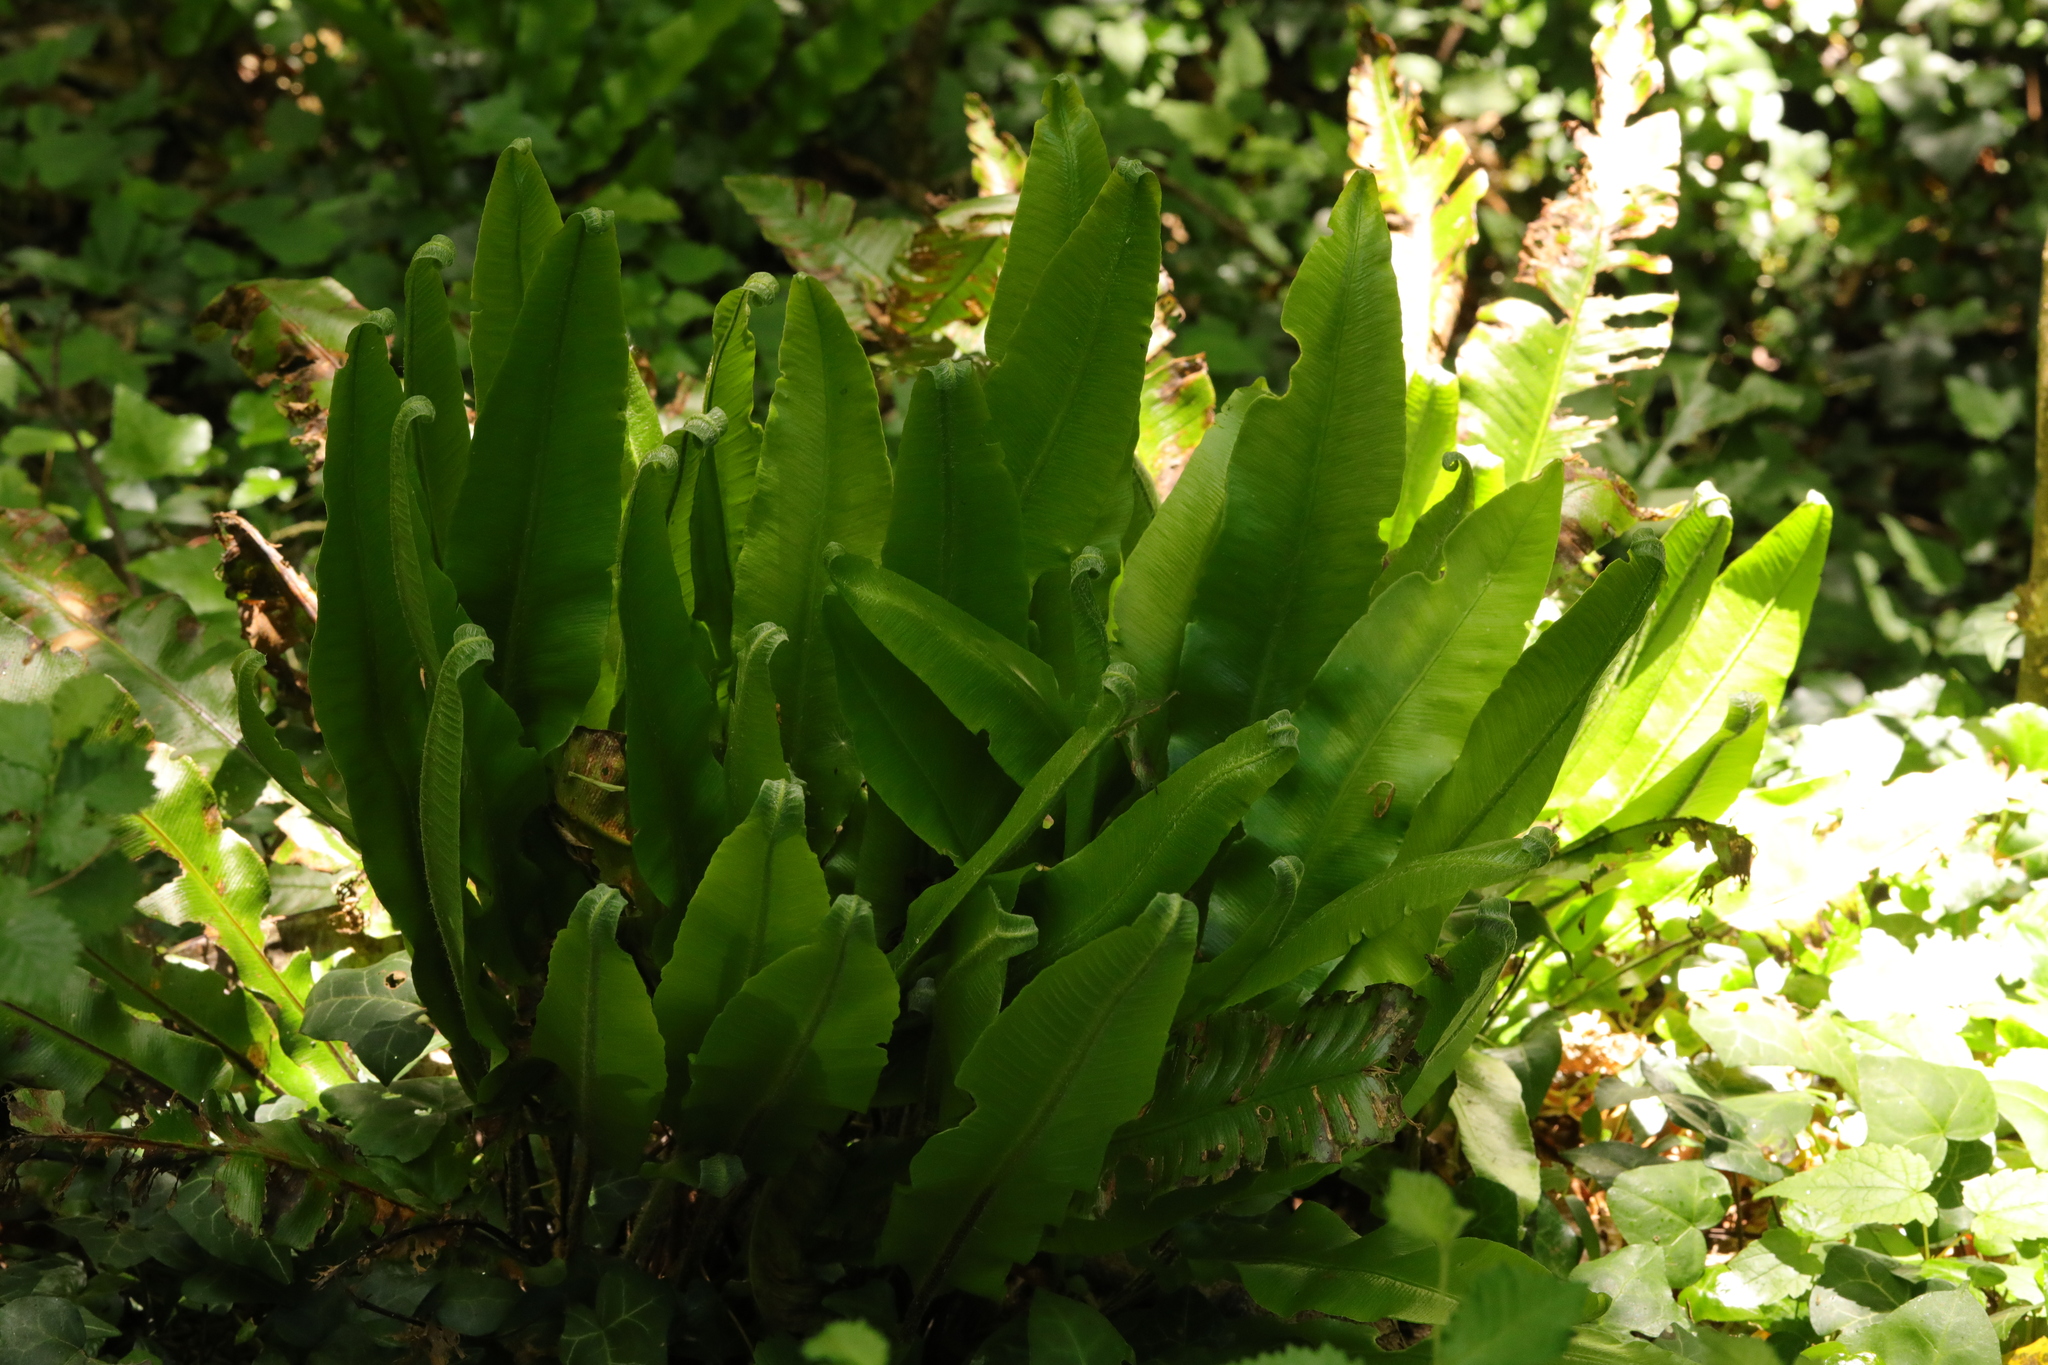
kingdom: Plantae
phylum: Tracheophyta
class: Polypodiopsida
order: Polypodiales
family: Aspleniaceae
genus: Asplenium
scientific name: Asplenium scolopendrium
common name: Hart's-tongue fern
